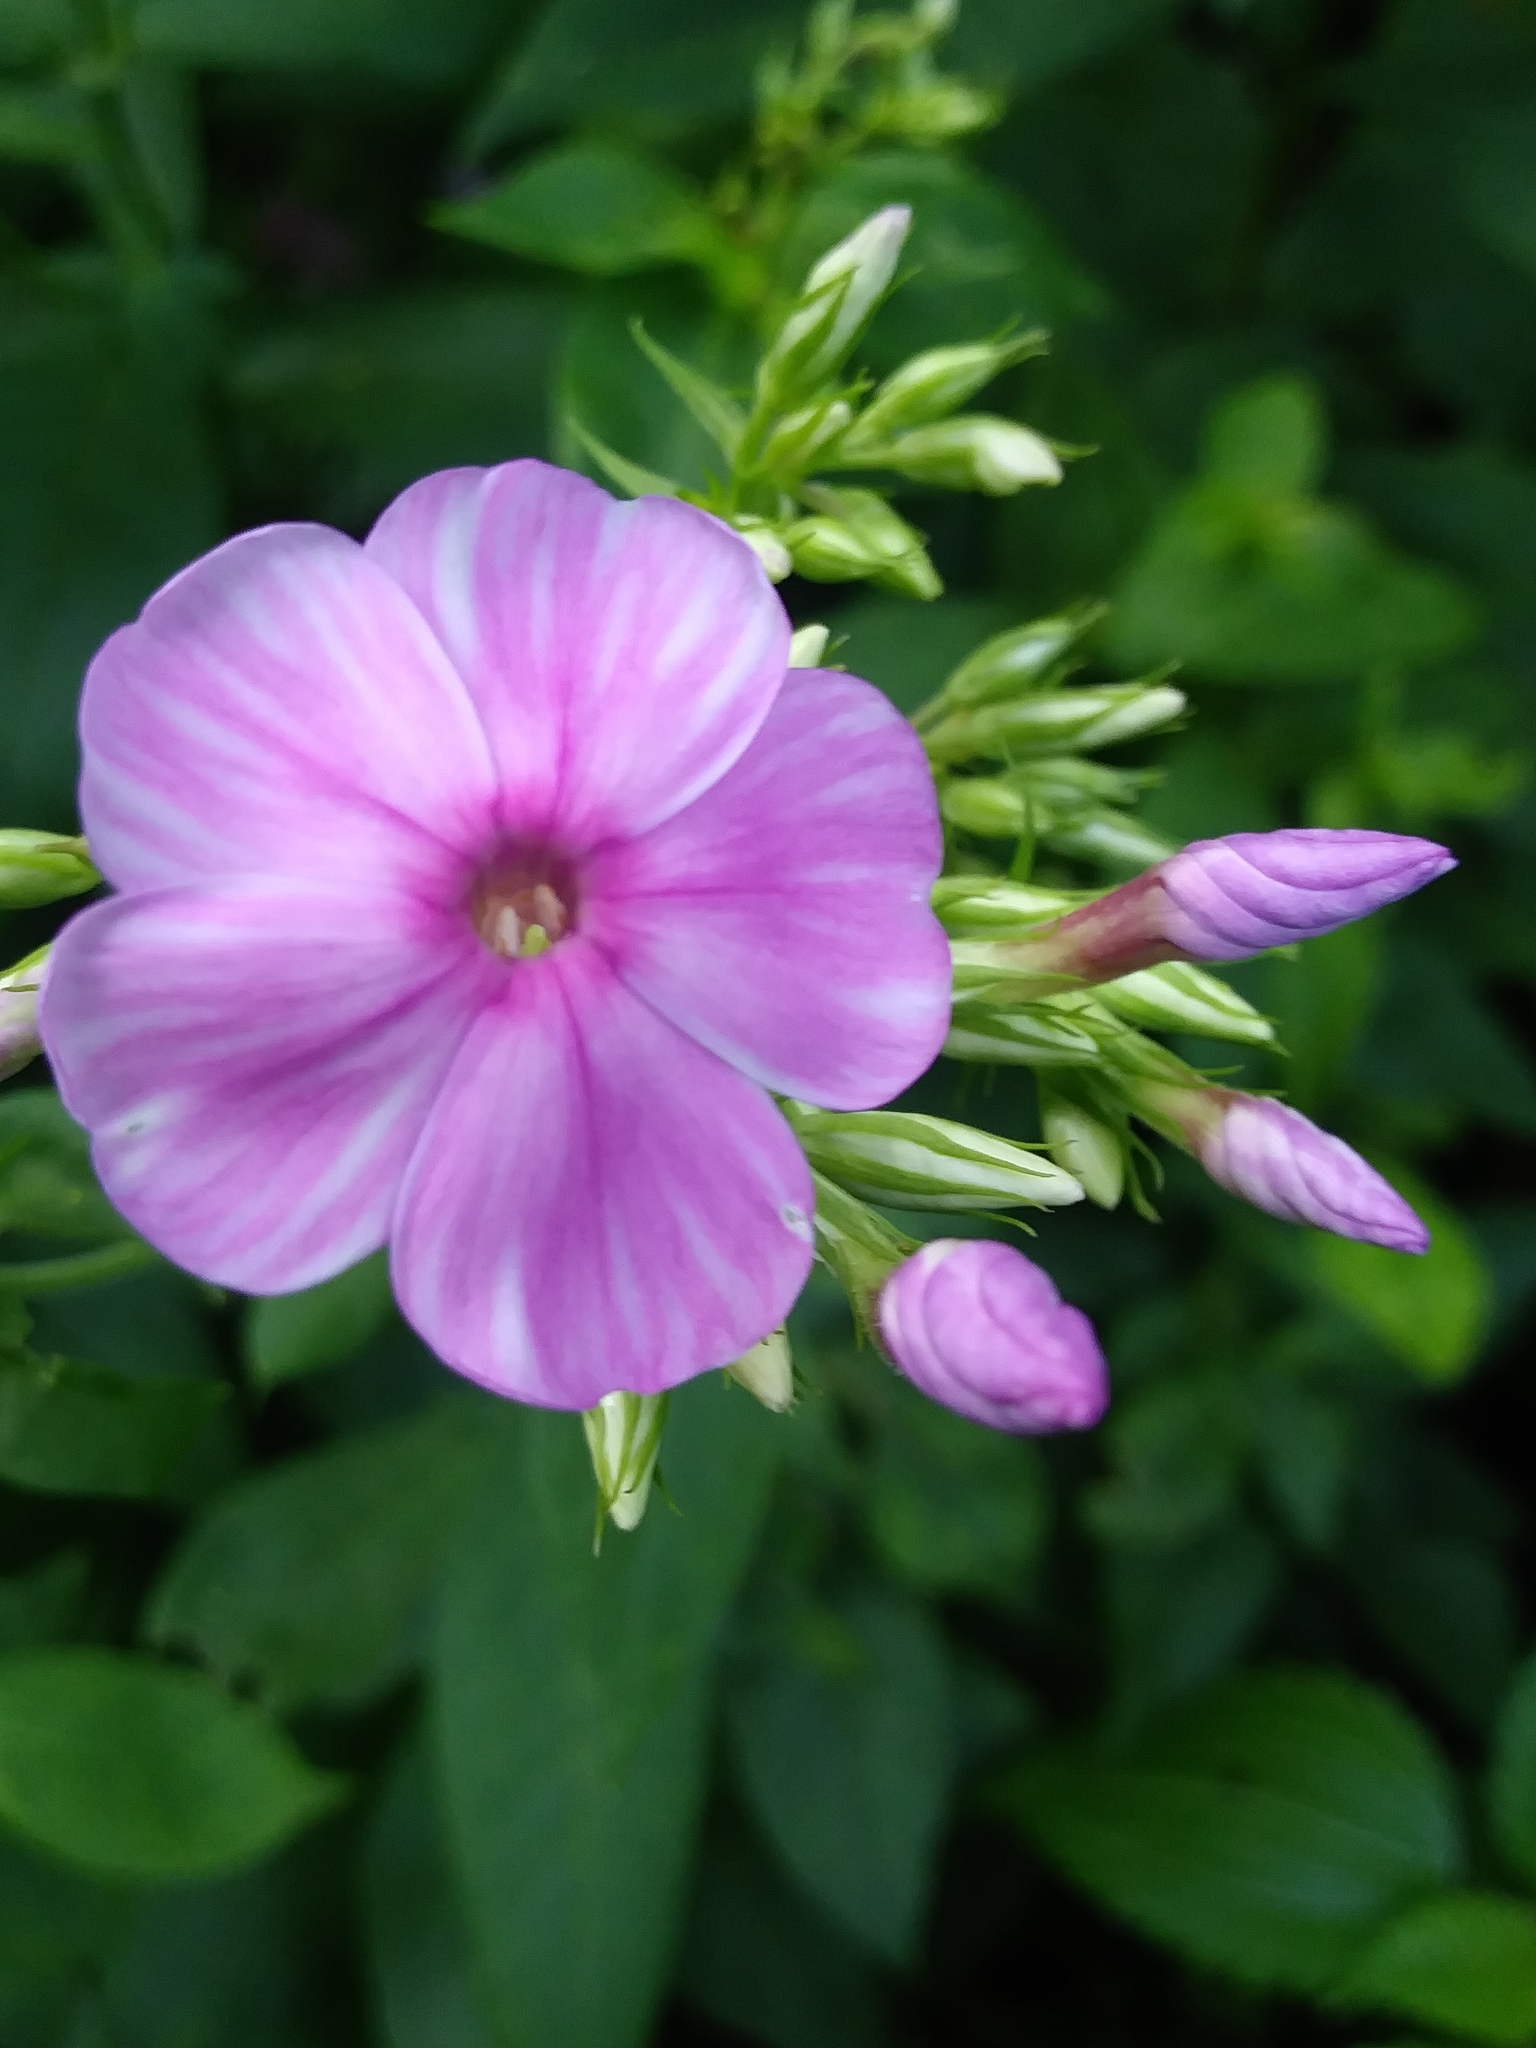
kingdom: Plantae
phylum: Tracheophyta
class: Magnoliopsida
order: Ericales
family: Polemoniaceae
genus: Phlox
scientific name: Phlox paniculata
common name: Fall phlox
